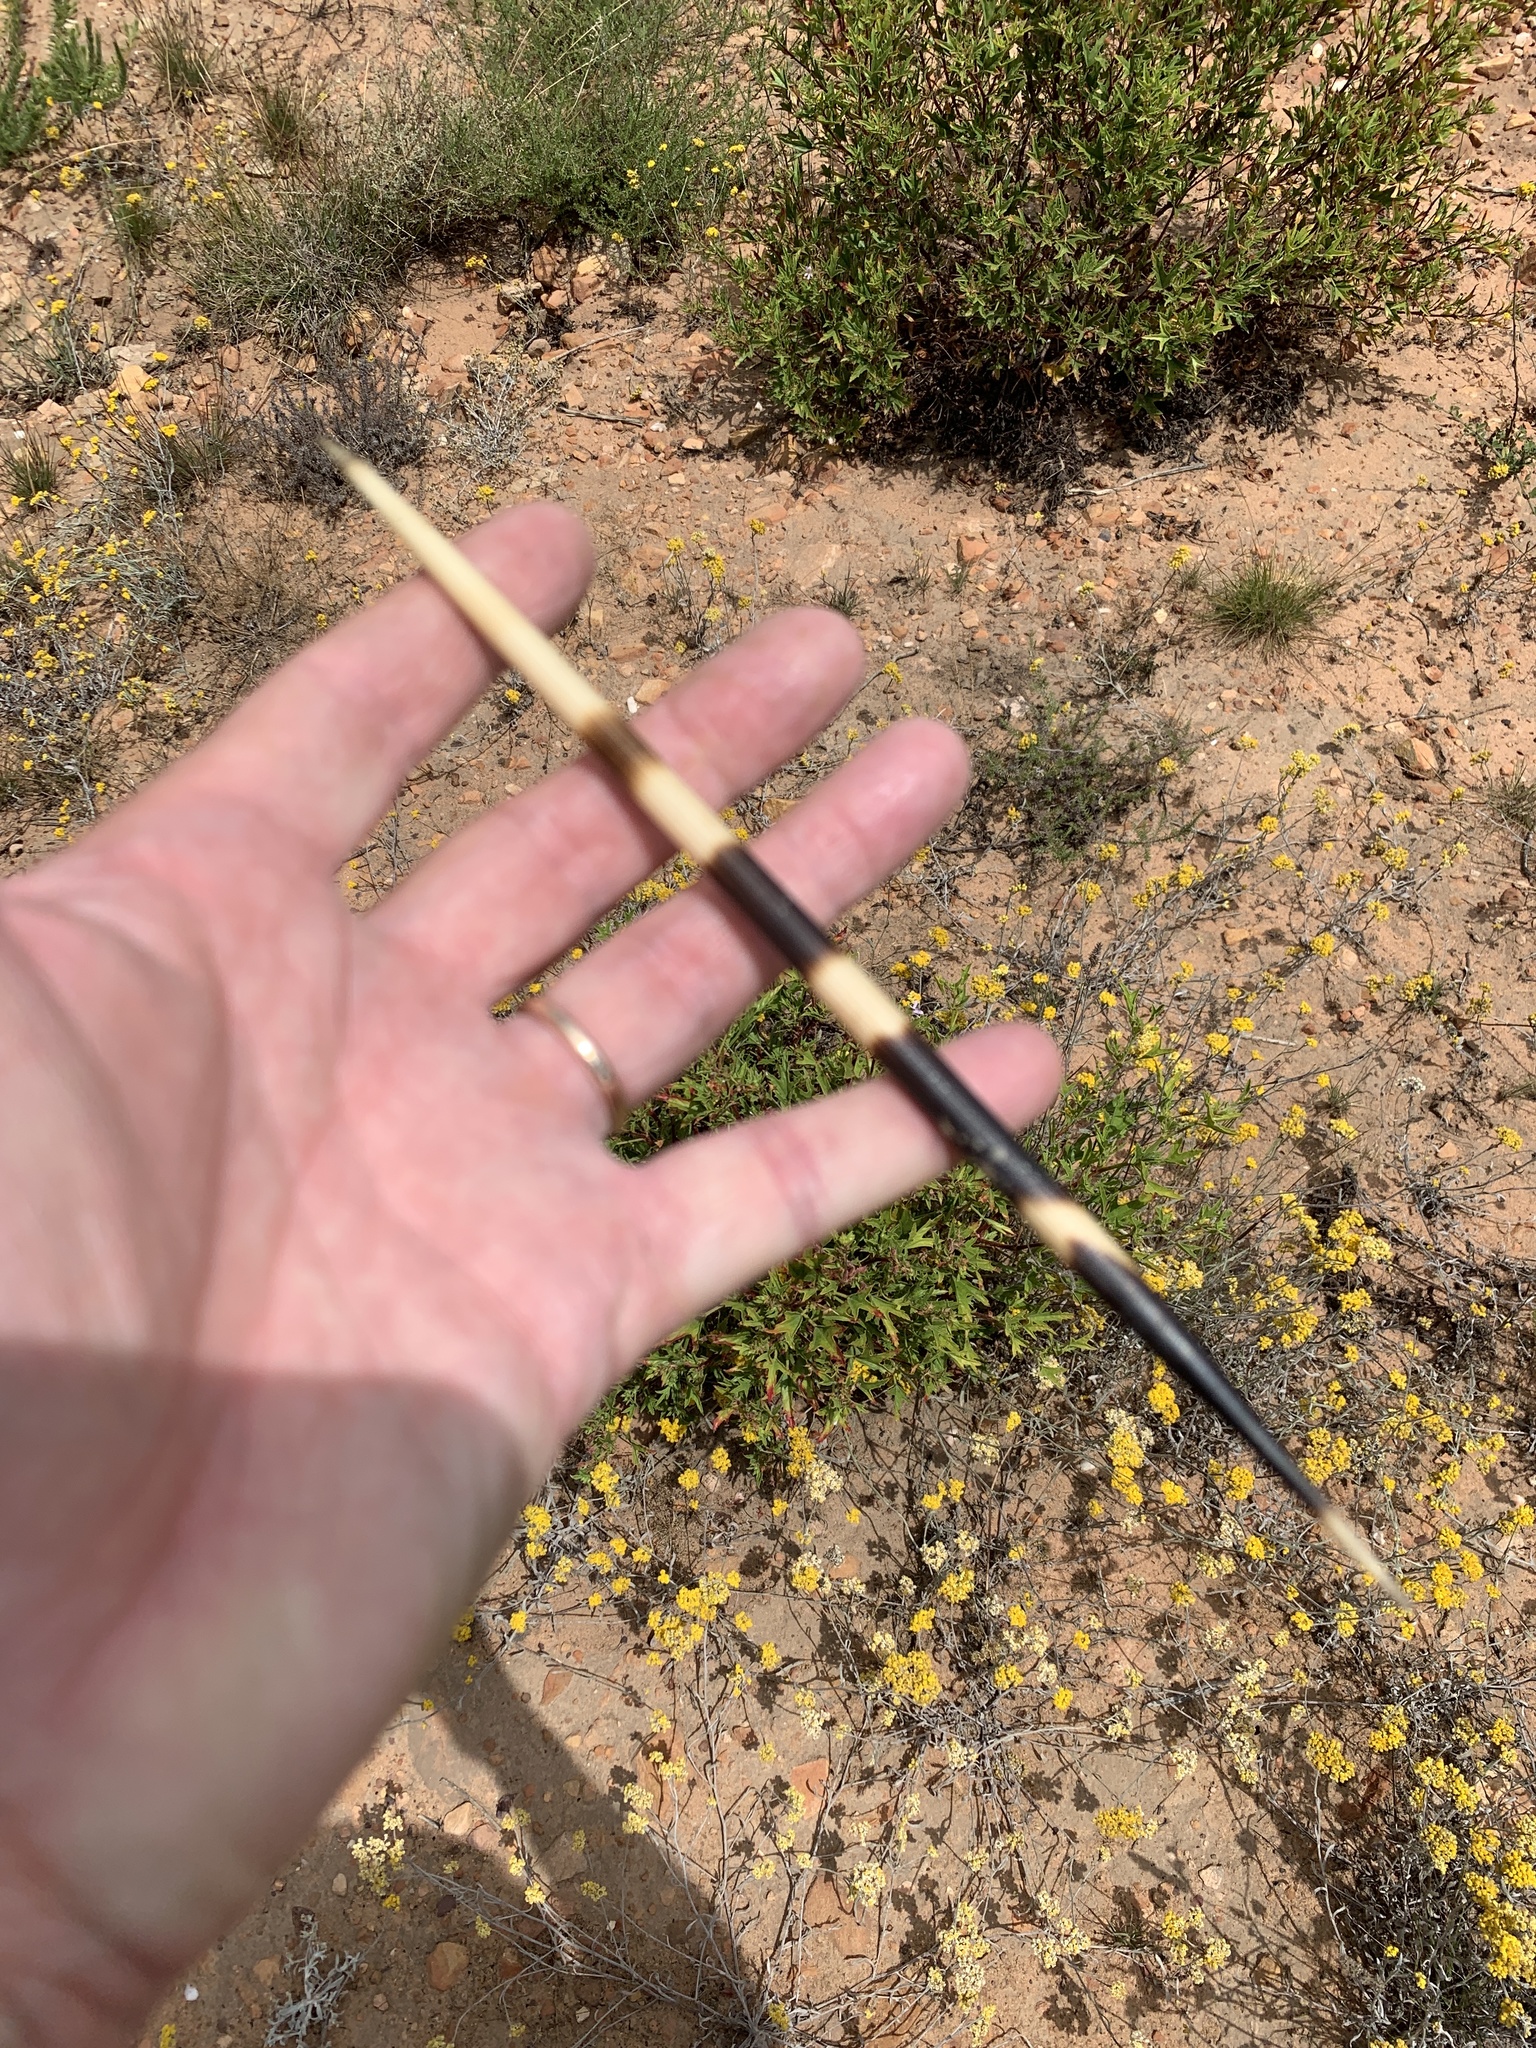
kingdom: Animalia
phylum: Chordata
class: Mammalia
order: Rodentia
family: Hystricidae
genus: Hystrix
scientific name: Hystrix africaeaustralis
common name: Cape porcupine
